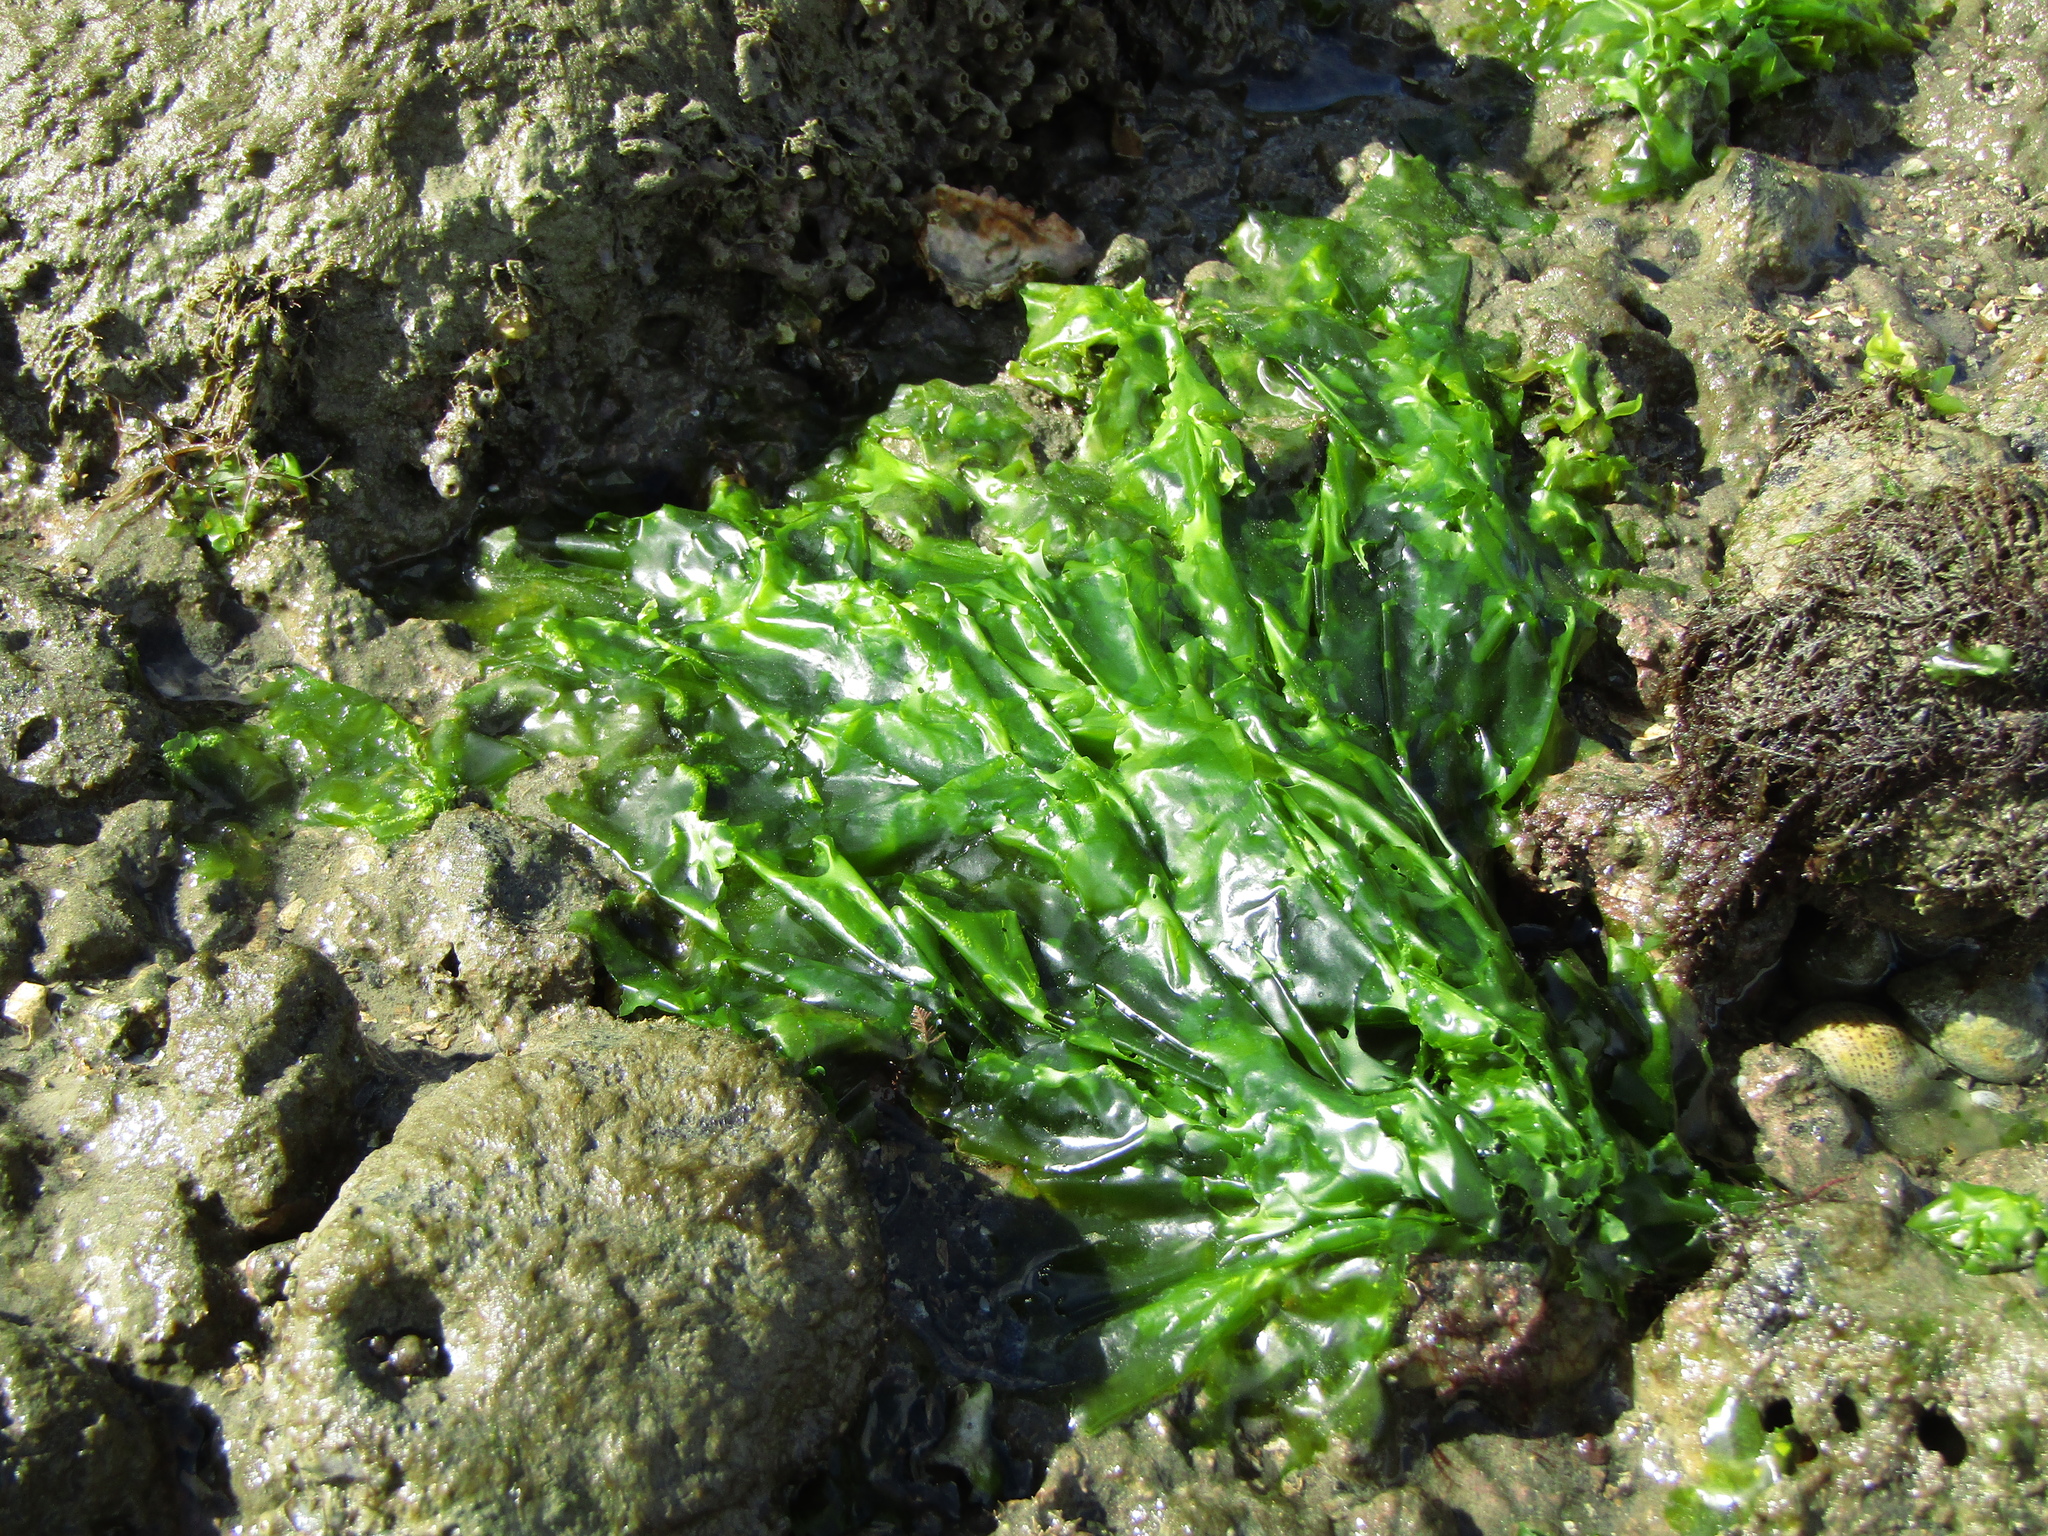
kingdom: Plantae
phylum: Chlorophyta
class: Ulvophyceae
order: Ulvales
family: Ulvaceae
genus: Ulva
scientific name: Ulva
